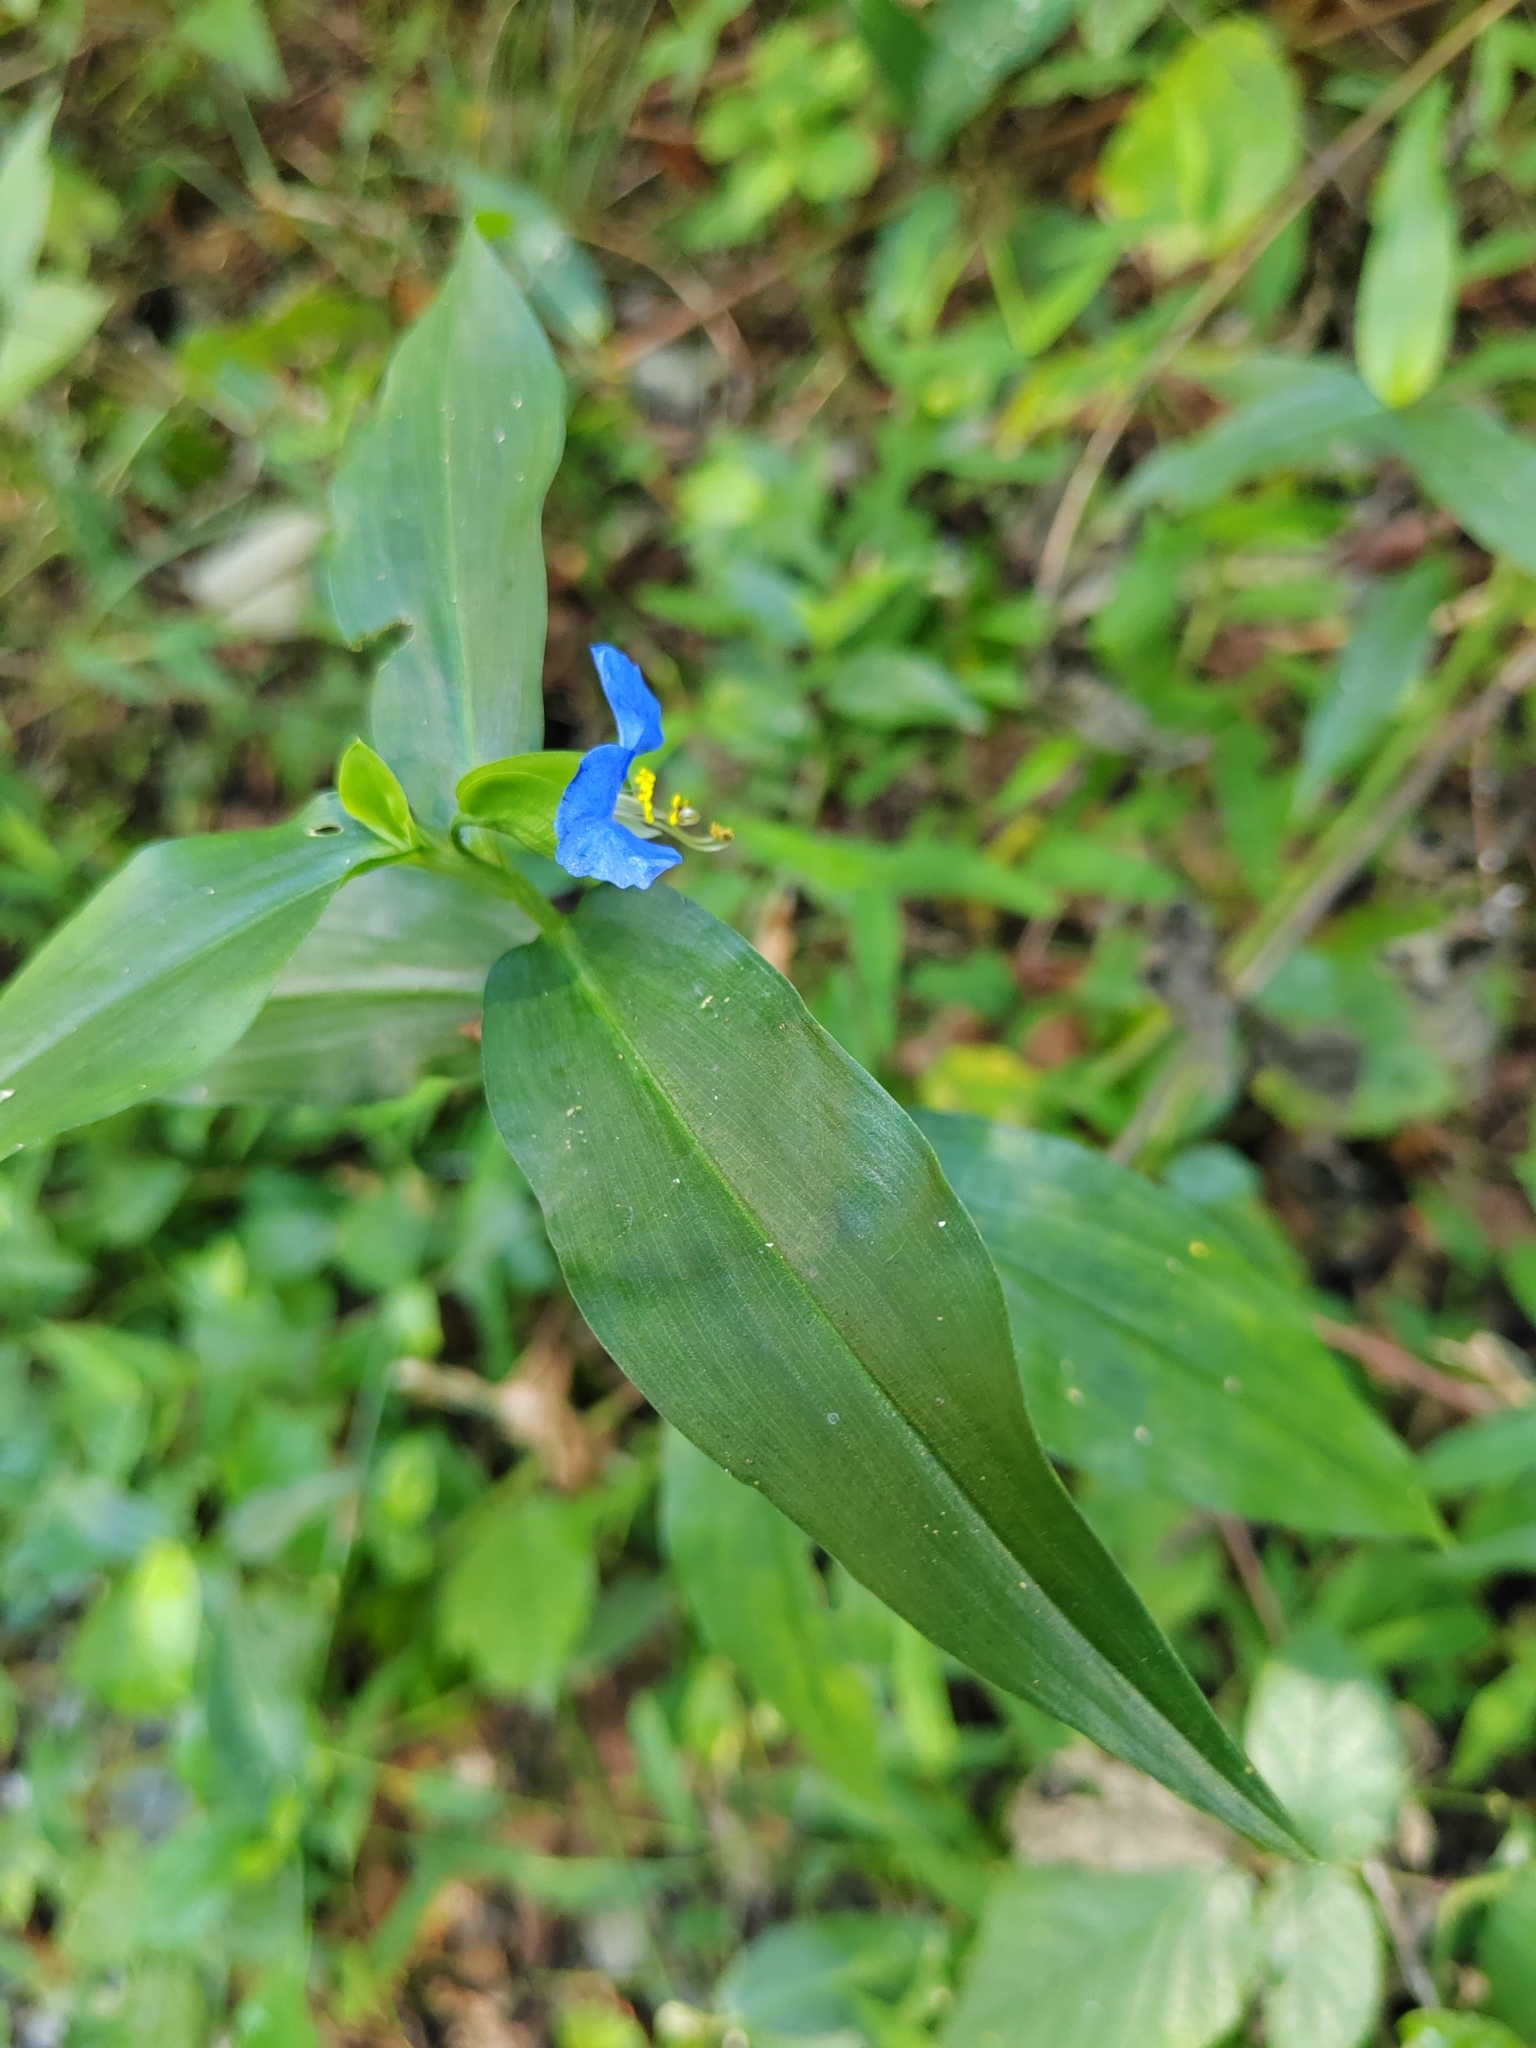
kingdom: Plantae
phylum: Tracheophyta
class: Liliopsida
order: Commelinales
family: Commelinaceae
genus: Commelina
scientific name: Commelina communis
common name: Asiatic dayflower
